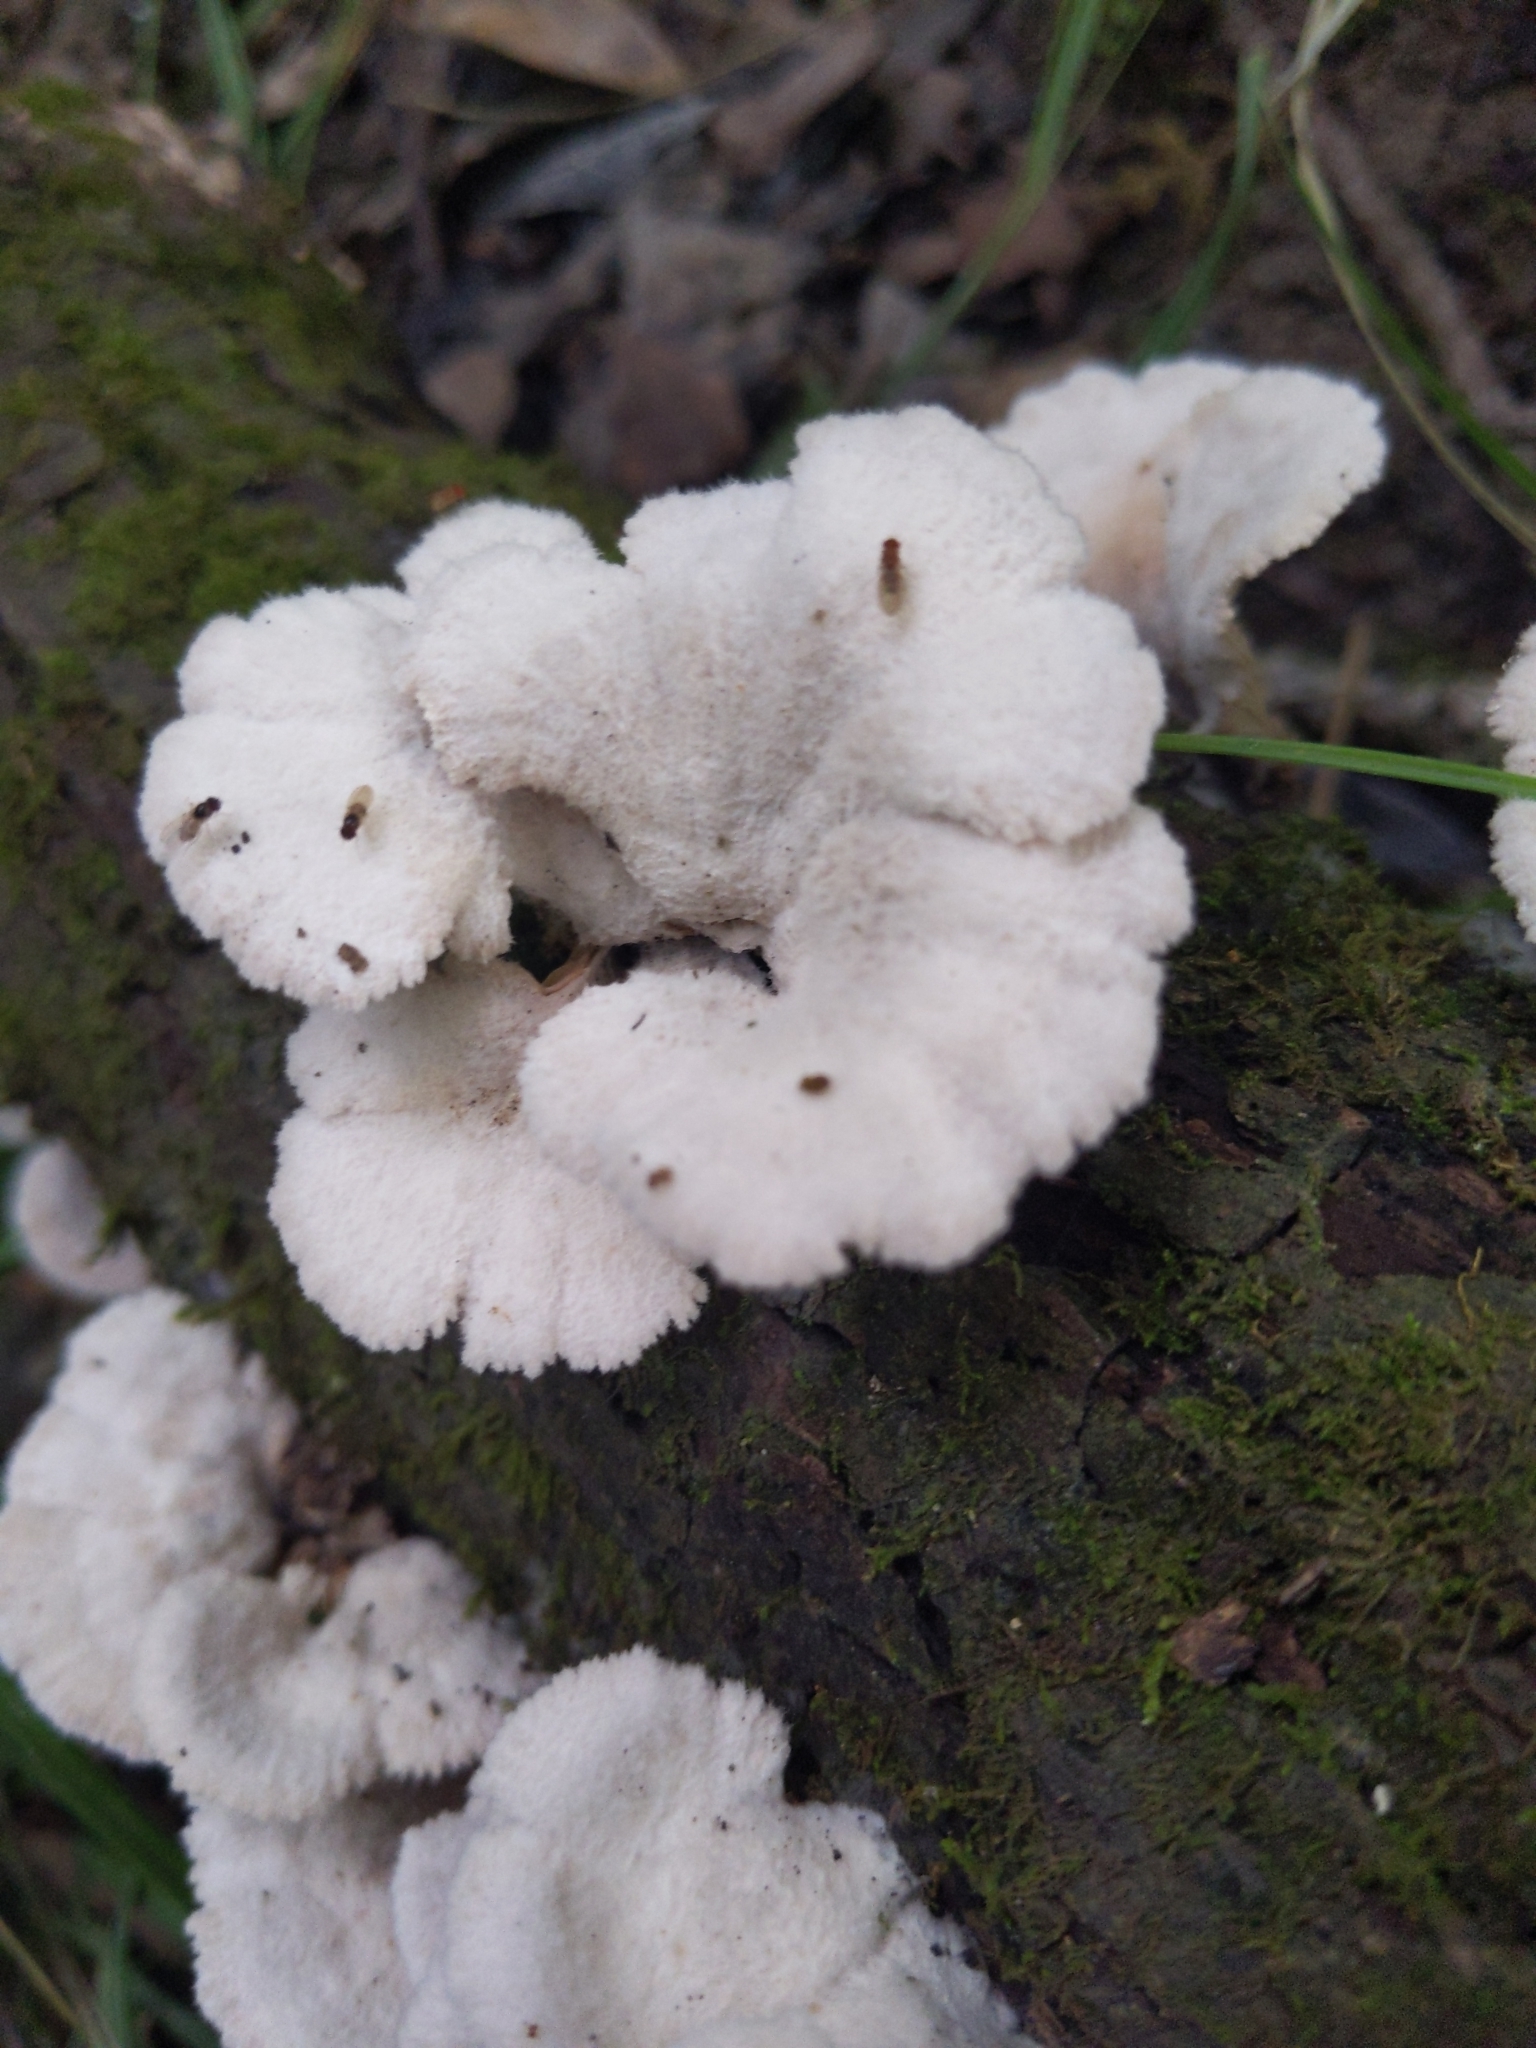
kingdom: Fungi
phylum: Basidiomycota
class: Agaricomycetes
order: Agaricales
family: Schizophyllaceae
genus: Schizophyllum
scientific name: Schizophyllum commune
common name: Common porecrust
